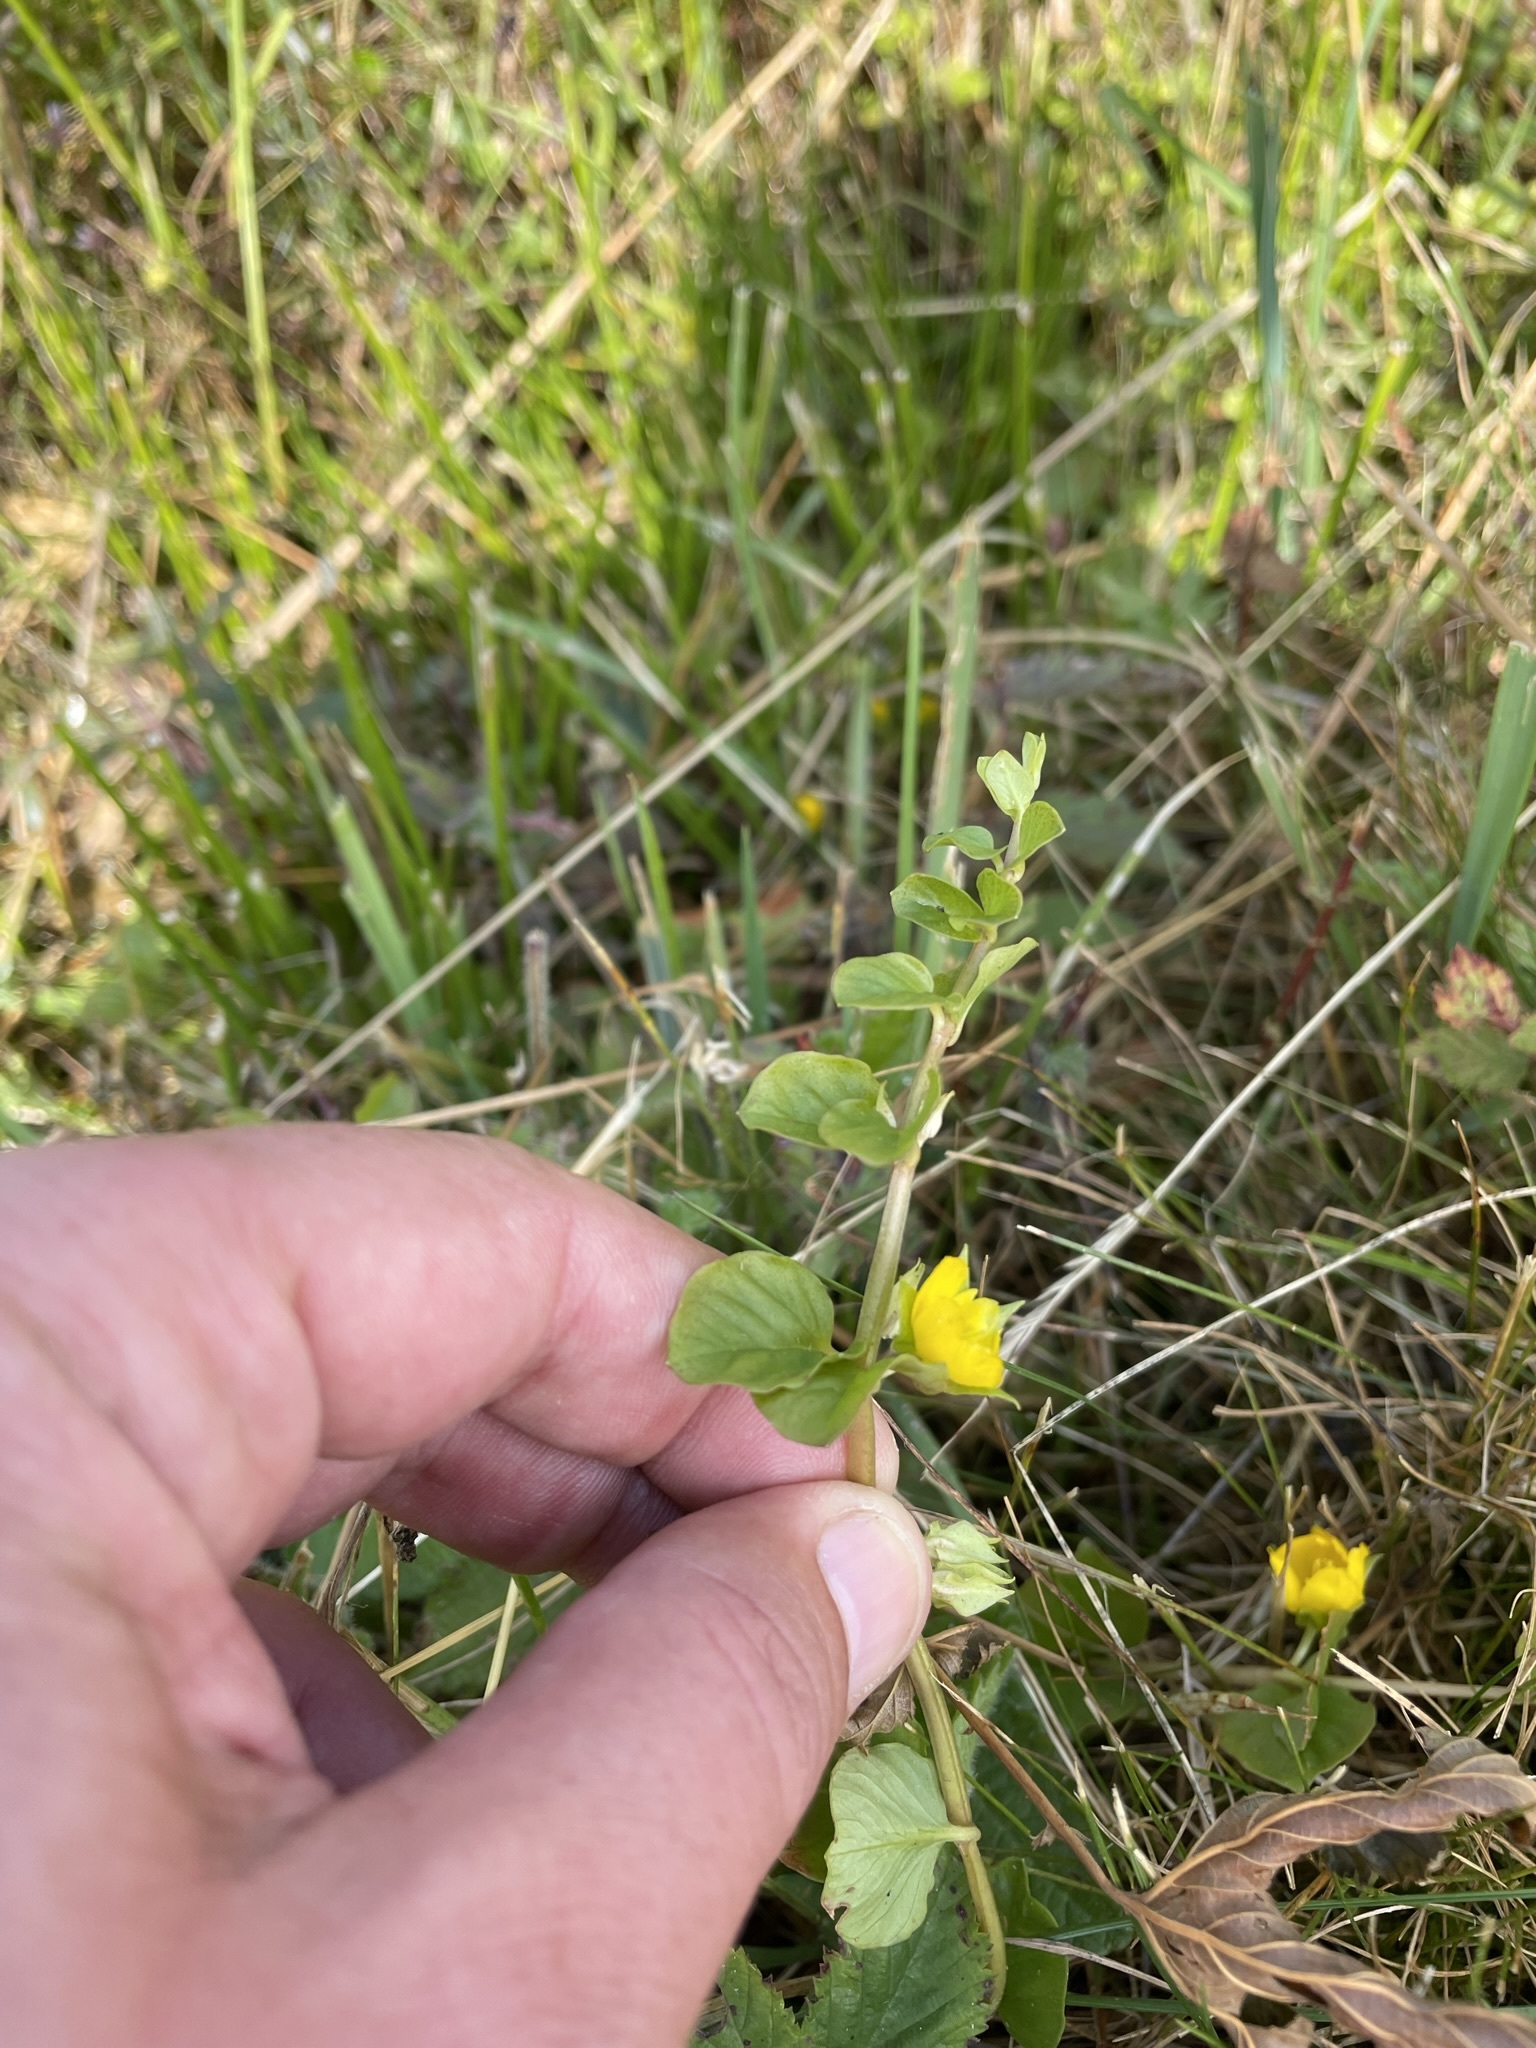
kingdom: Plantae
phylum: Tracheophyta
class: Magnoliopsida
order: Ericales
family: Primulaceae
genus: Lysimachia
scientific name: Lysimachia nummularia
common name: Moneywort
